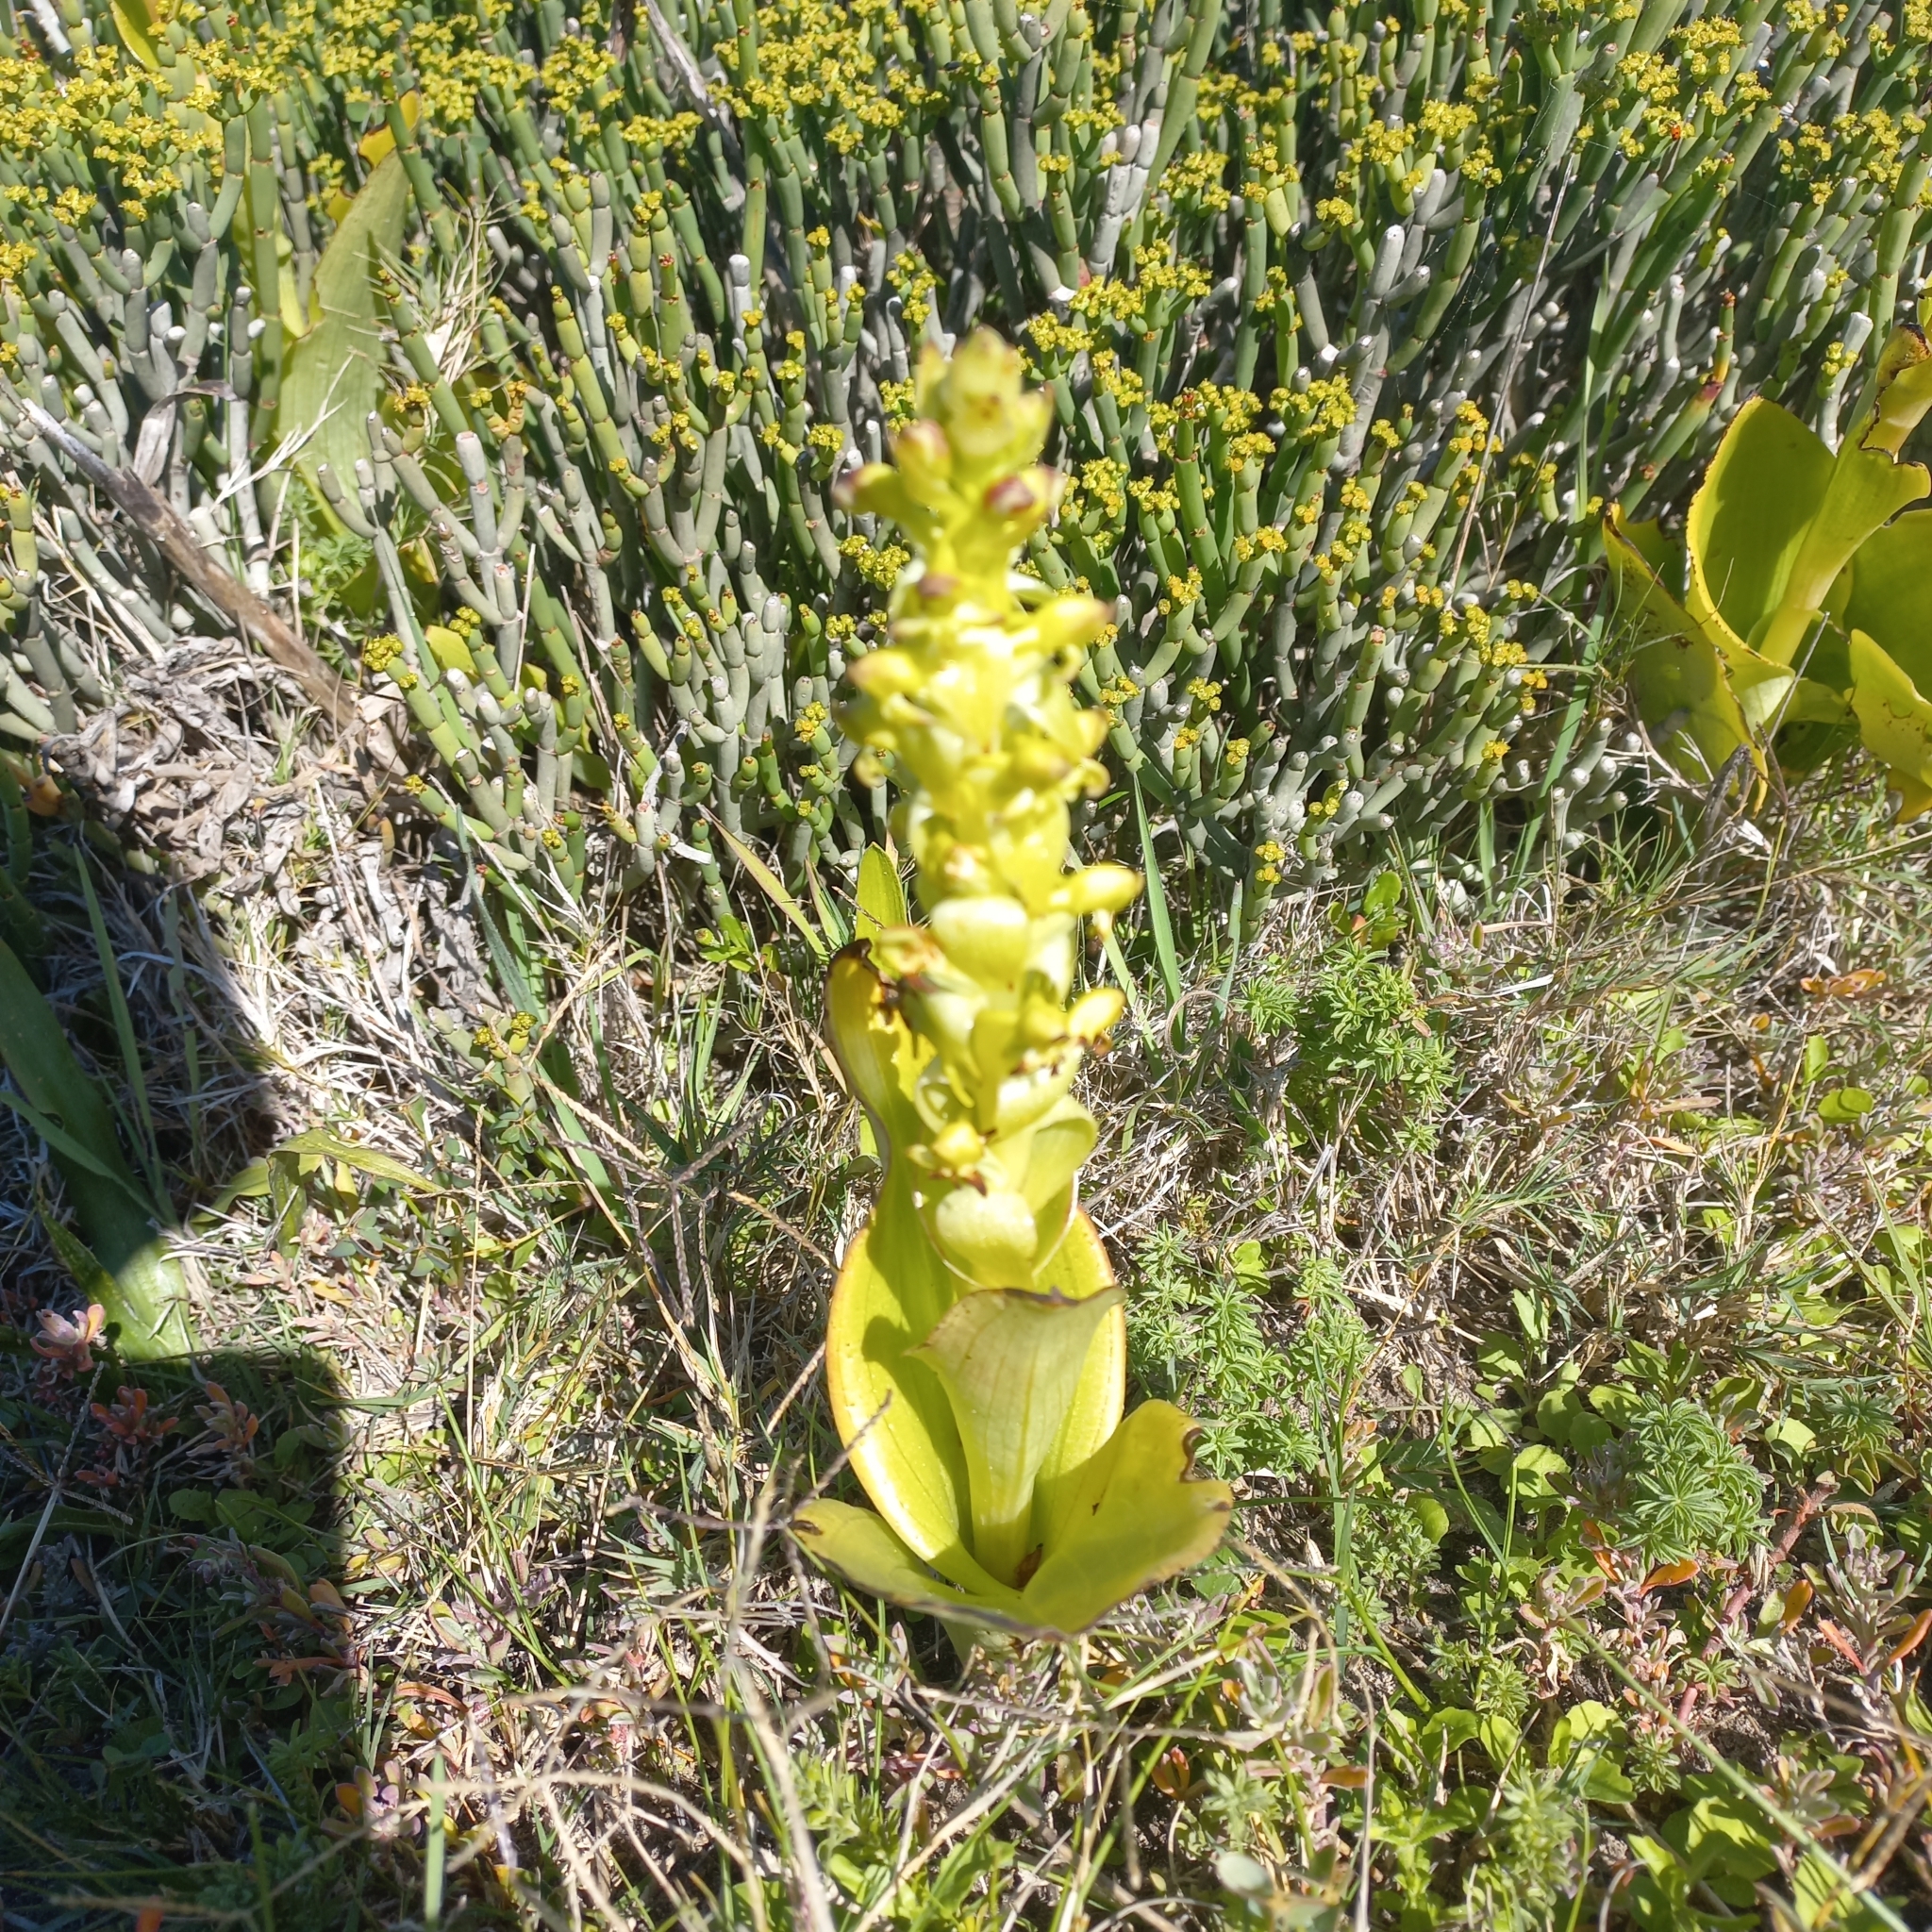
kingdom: Plantae
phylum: Tracheophyta
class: Liliopsida
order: Asparagales
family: Orchidaceae
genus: Satyrium
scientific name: Satyrium odorum
